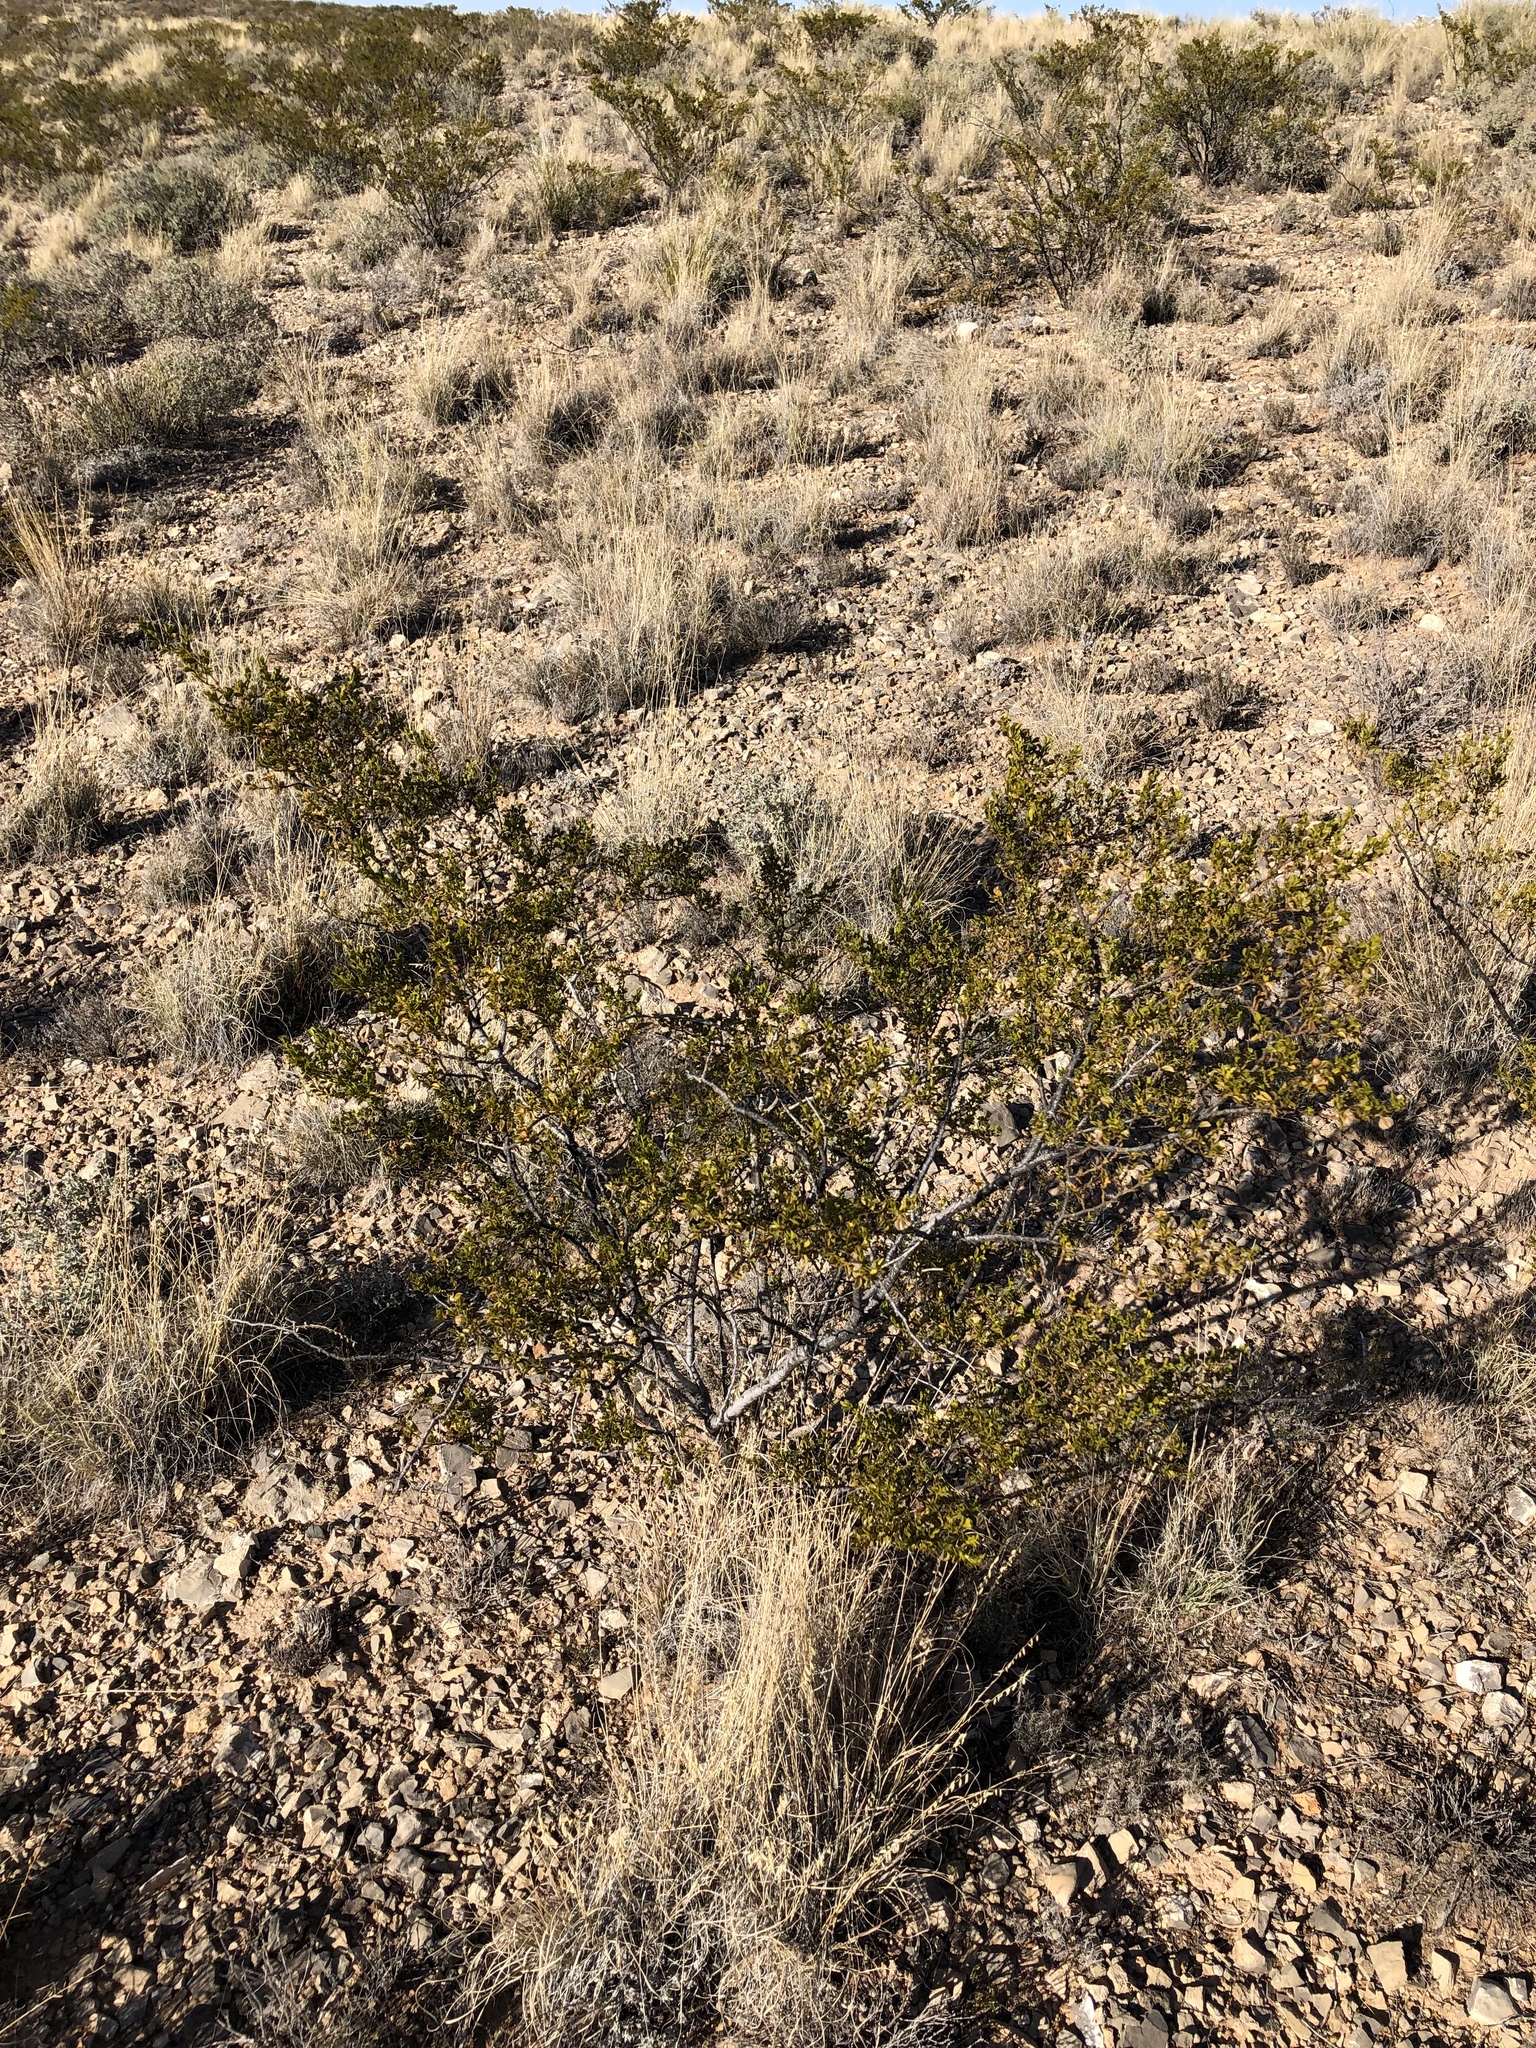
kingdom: Plantae
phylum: Tracheophyta
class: Magnoliopsida
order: Zygophyllales
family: Zygophyllaceae
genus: Larrea
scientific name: Larrea tridentata
